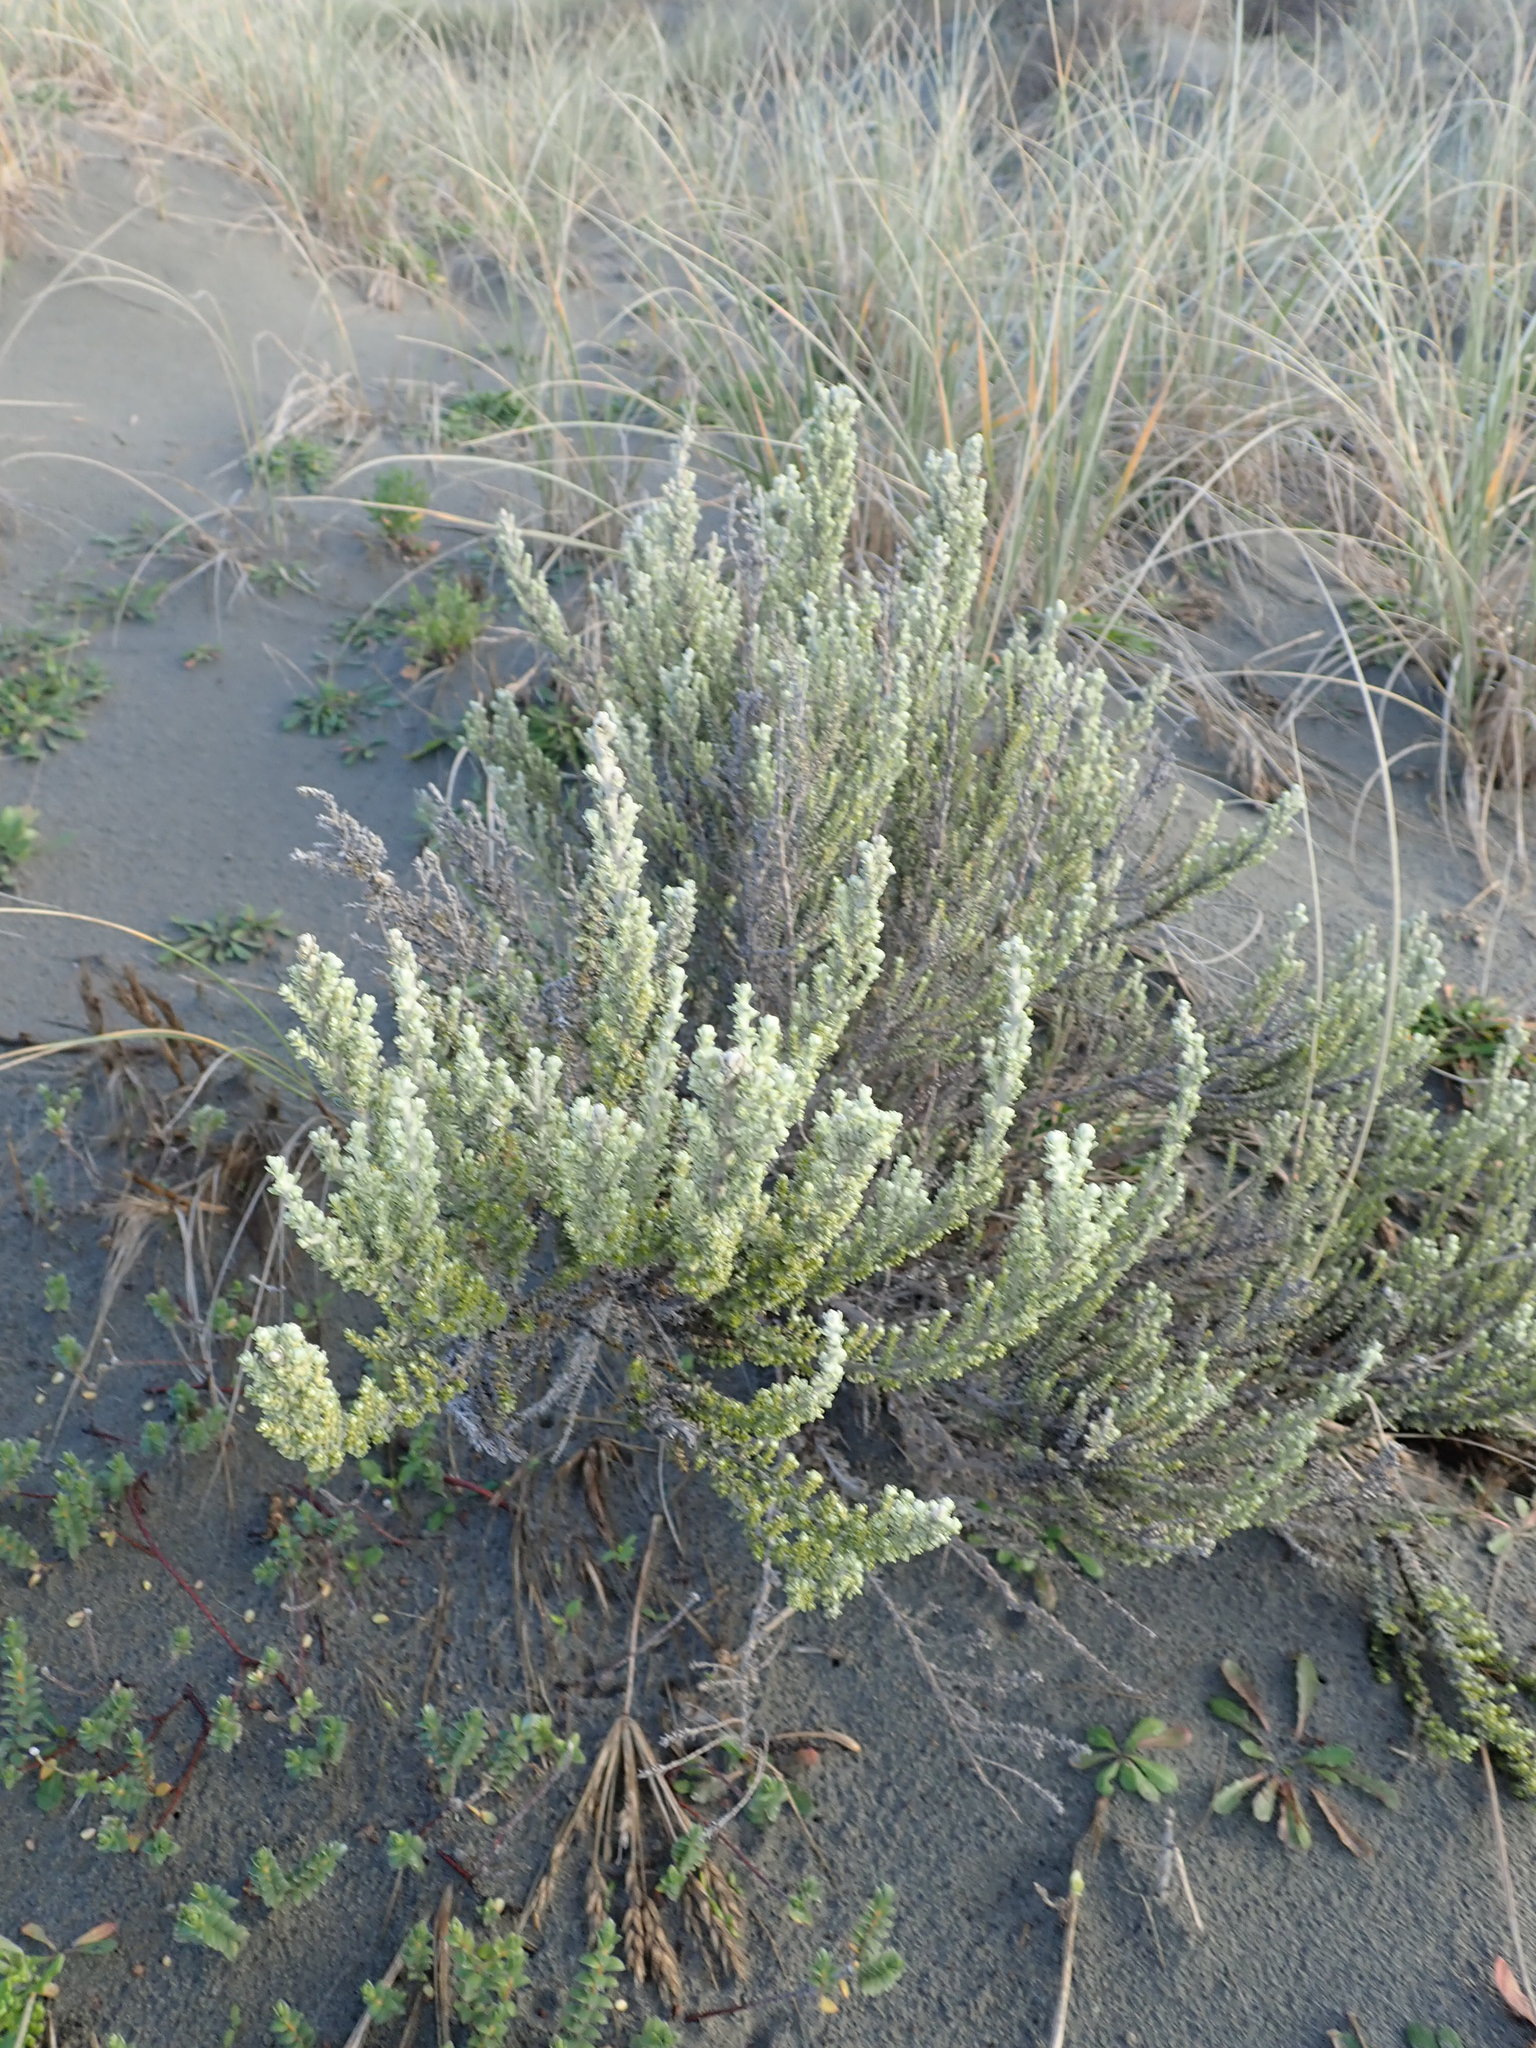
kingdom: Plantae
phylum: Tracheophyta
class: Magnoliopsida
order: Asterales
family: Asteraceae
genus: Ozothamnus
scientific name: Ozothamnus leptophyllus
